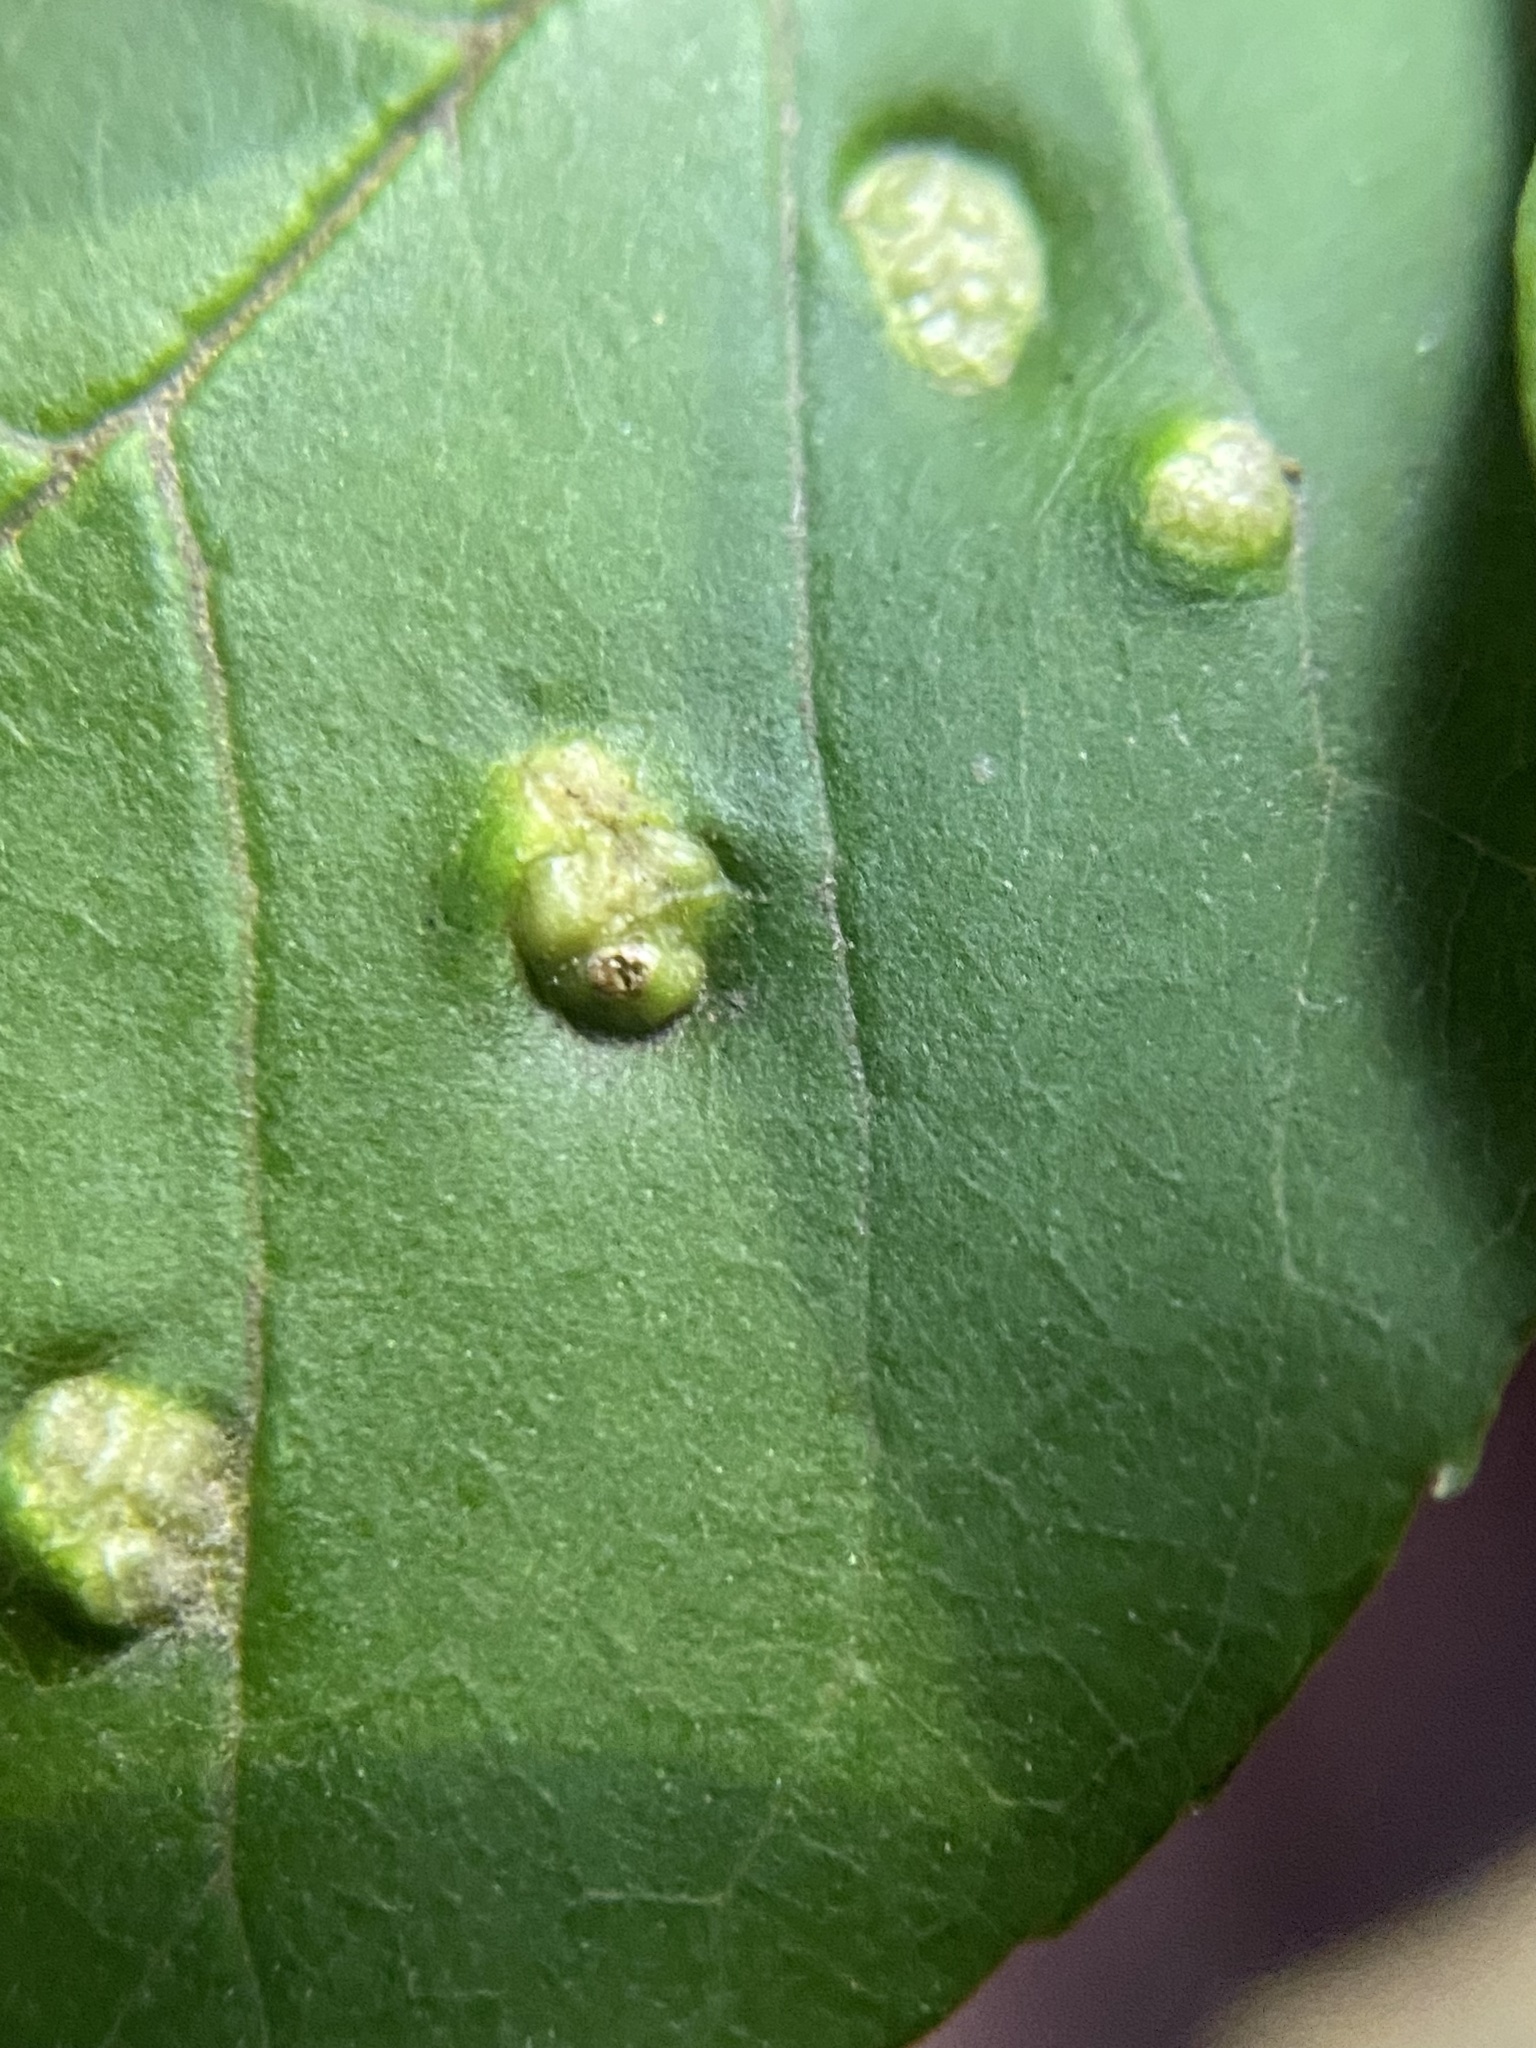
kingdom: Animalia
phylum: Arthropoda
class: Arachnida
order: Trombidiformes
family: Eriophyidae
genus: Aceria
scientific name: Aceria fraxinicola
